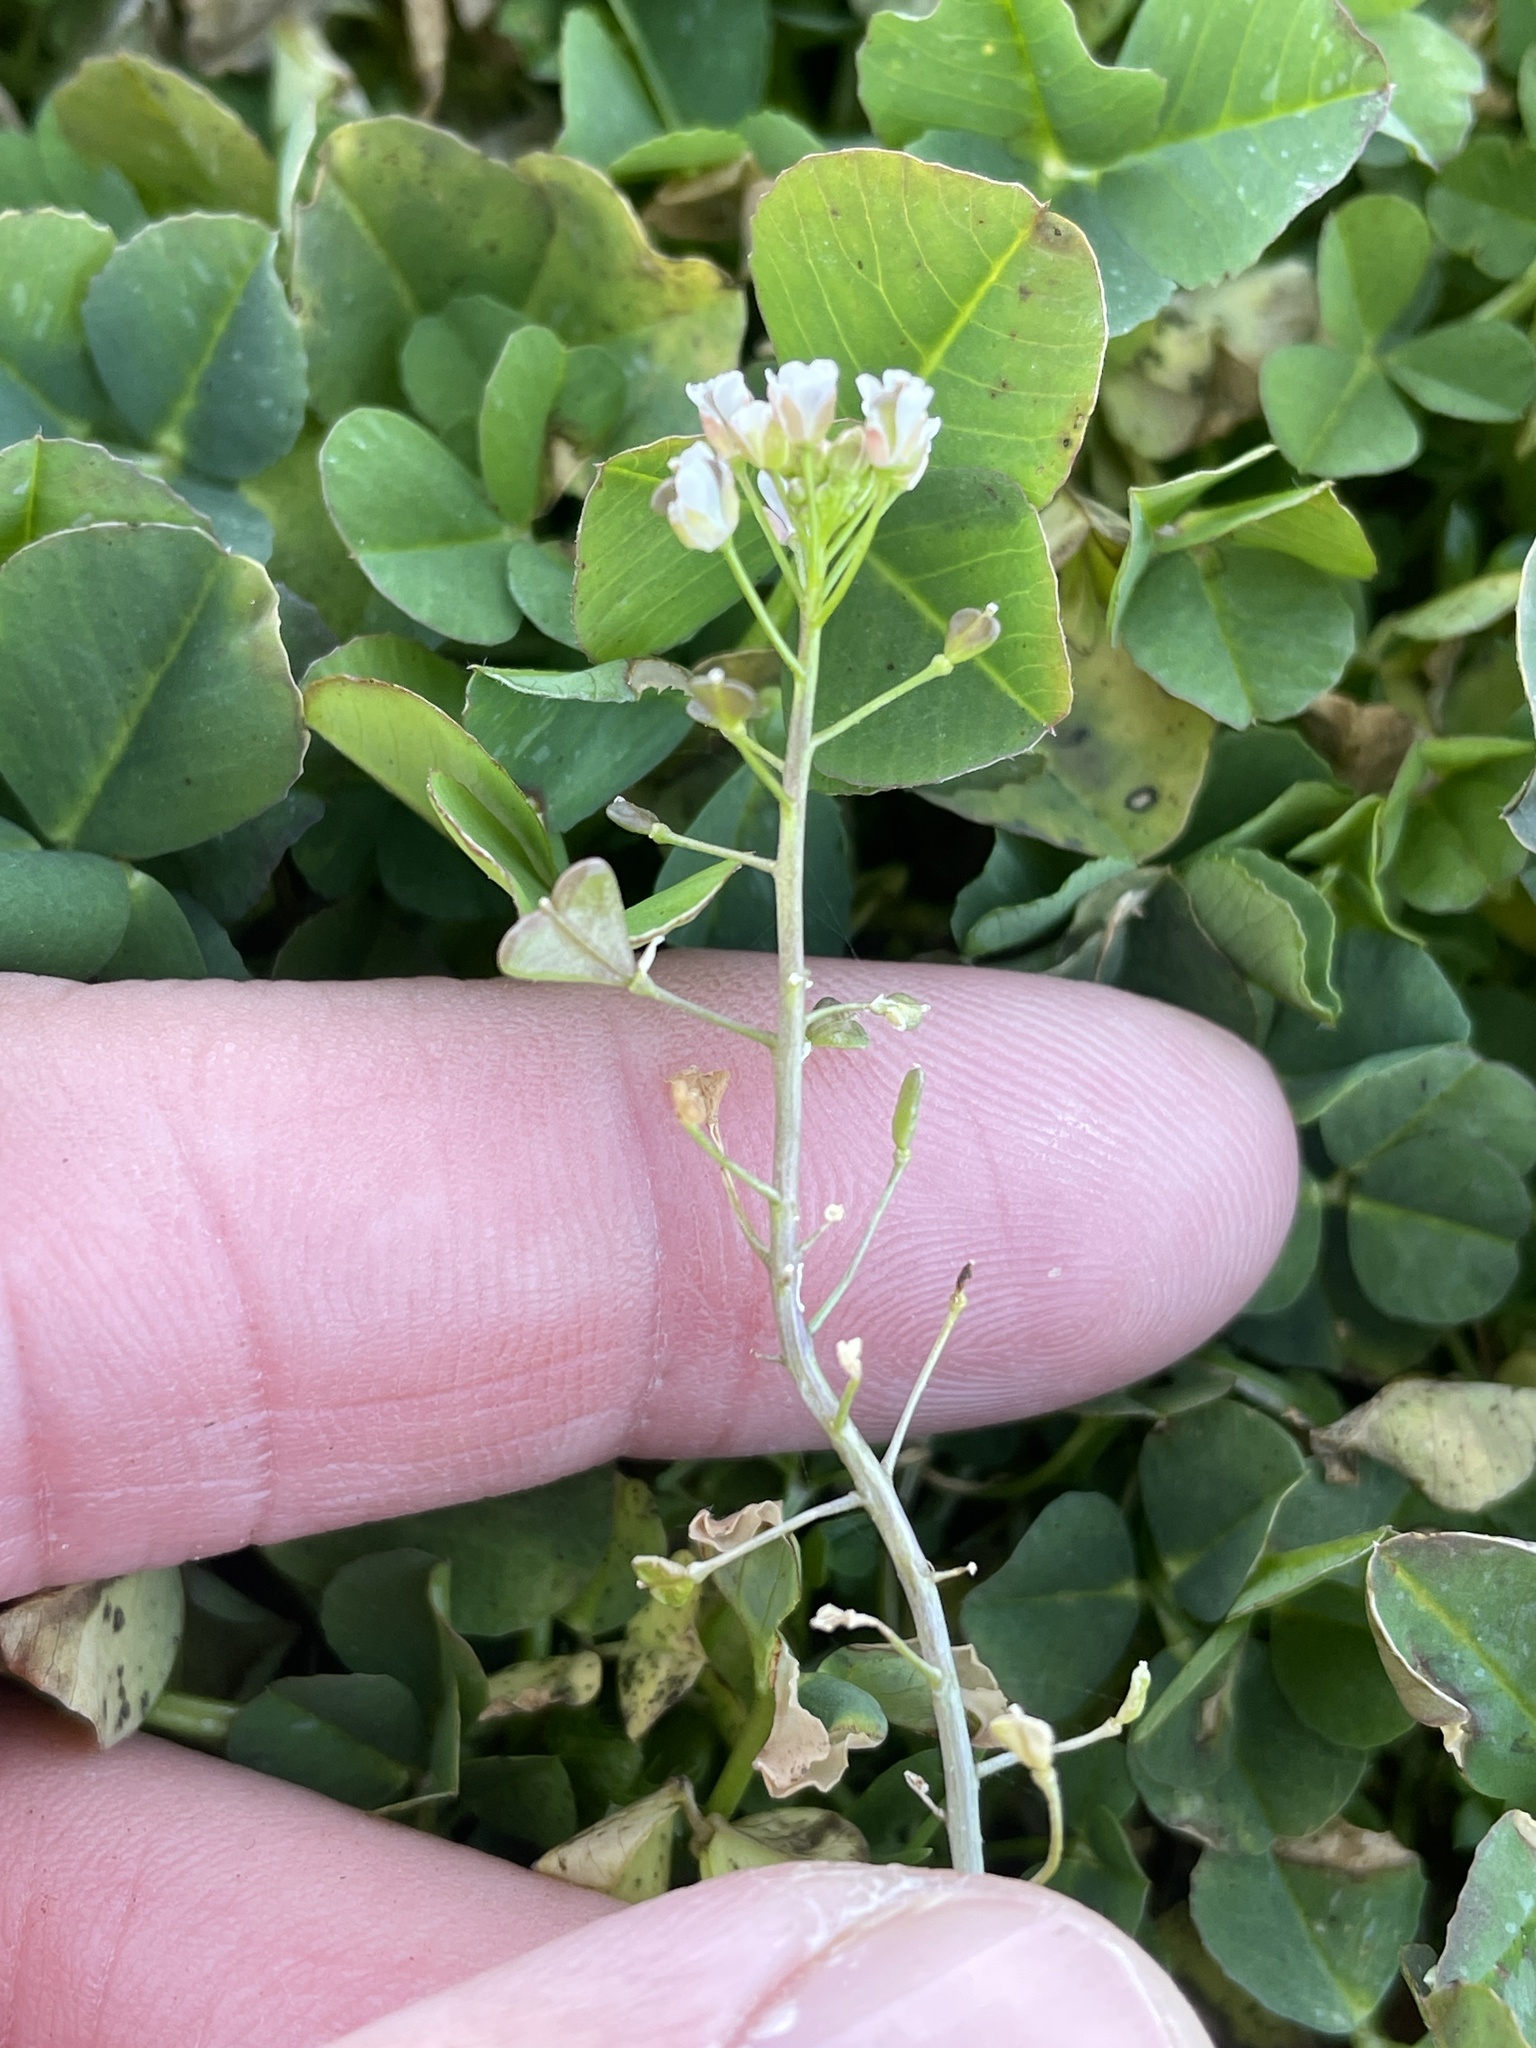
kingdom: Plantae
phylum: Tracheophyta
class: Magnoliopsida
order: Brassicales
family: Brassicaceae
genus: Capsella
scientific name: Capsella bursa-pastoris
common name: Shepherd's purse
